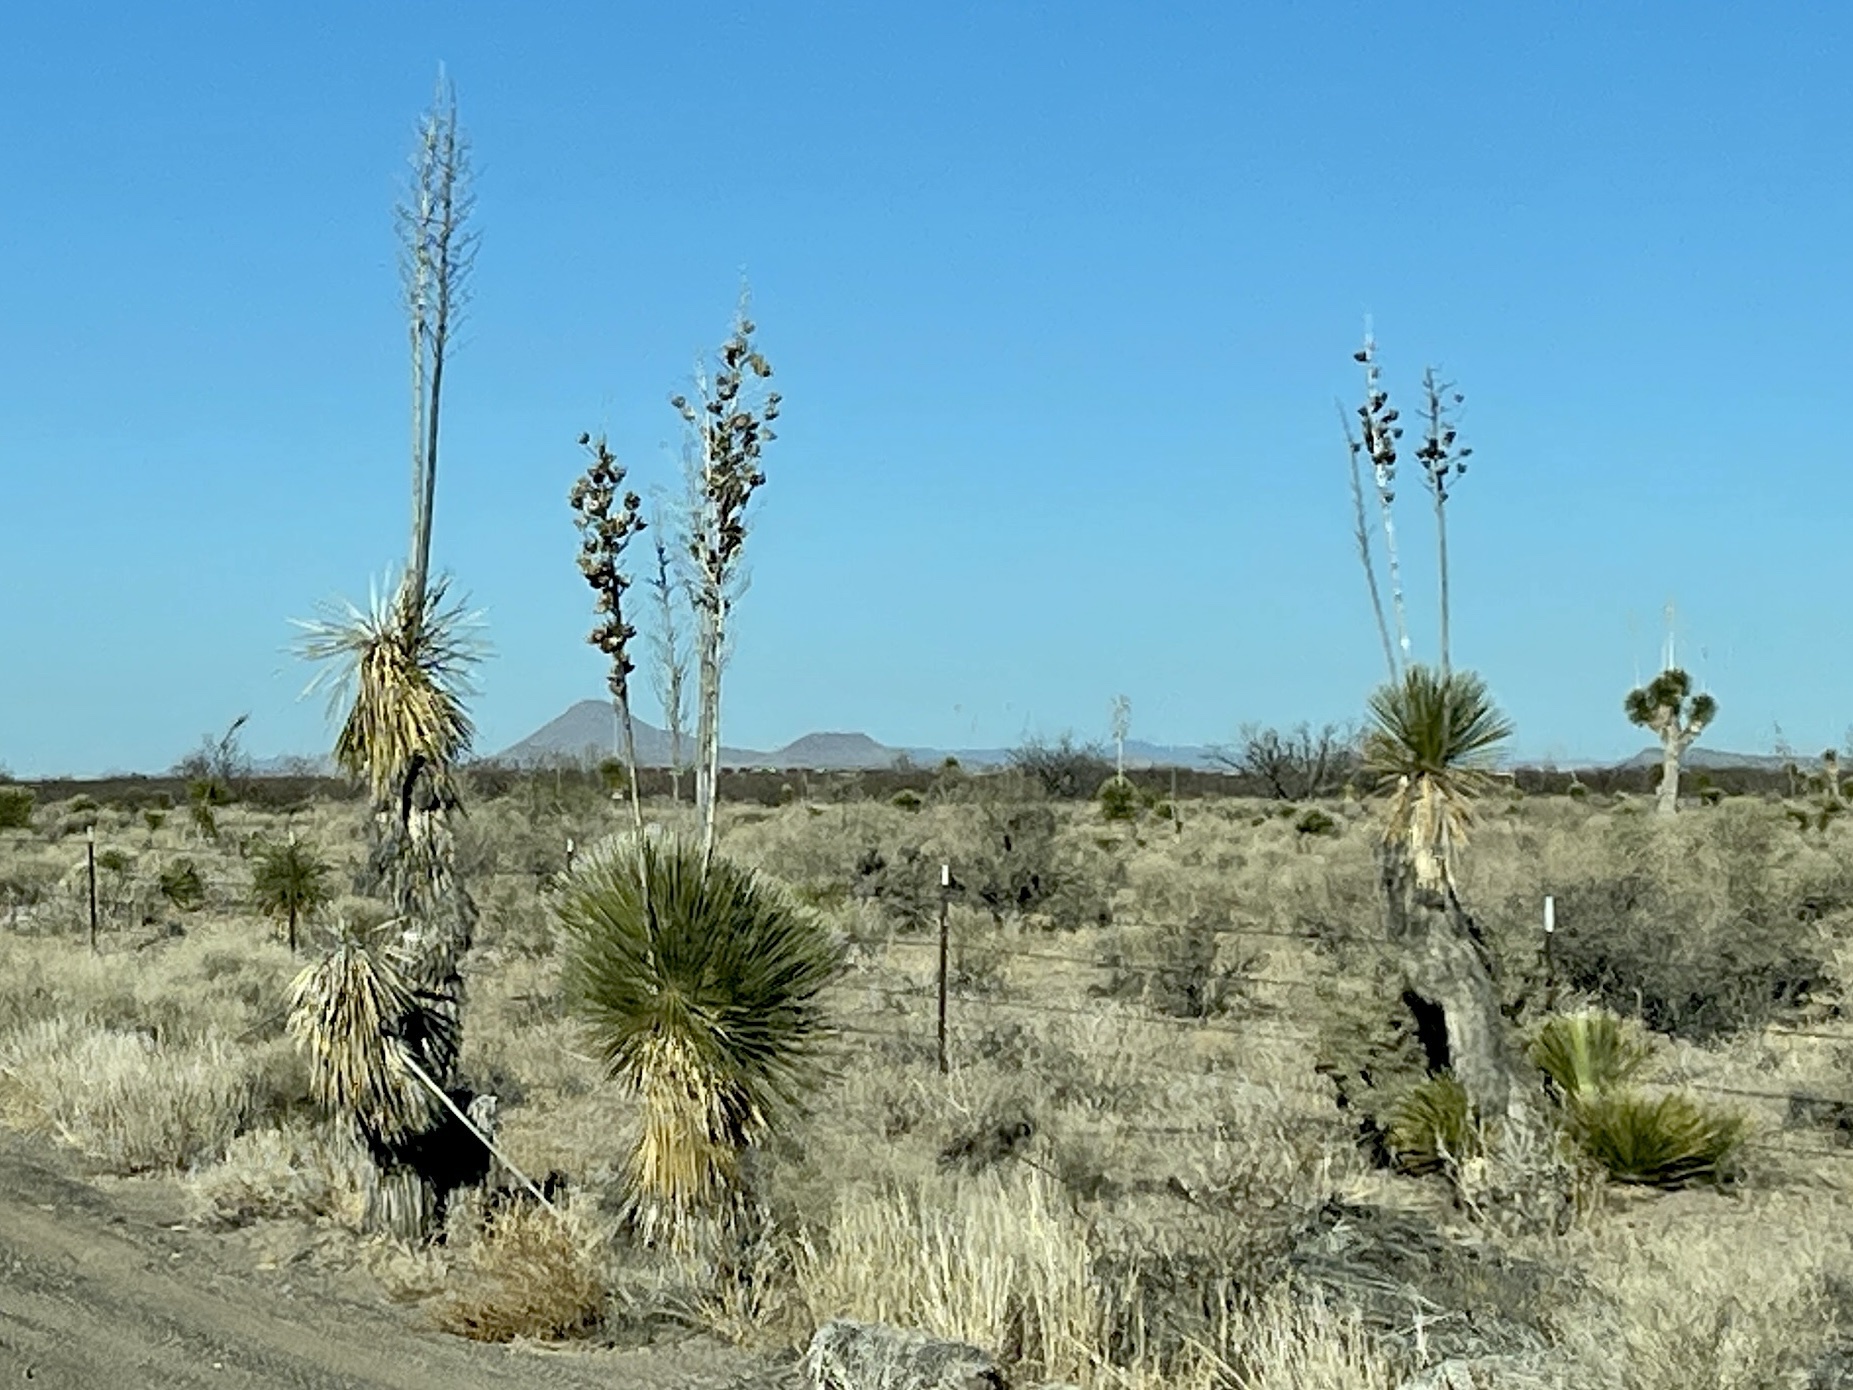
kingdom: Plantae
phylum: Tracheophyta
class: Liliopsida
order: Asparagales
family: Asparagaceae
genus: Yucca
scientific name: Yucca elata
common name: Palmella
